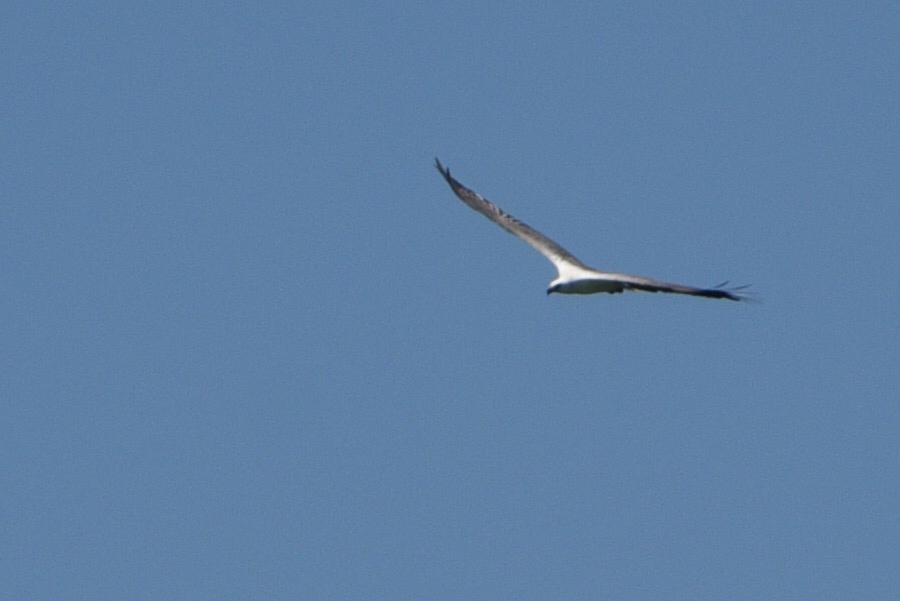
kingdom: Animalia
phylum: Chordata
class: Aves
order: Accipitriformes
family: Accipitridae
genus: Haliaeetus
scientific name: Haliaeetus leucogaster
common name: White-bellied sea eagle
